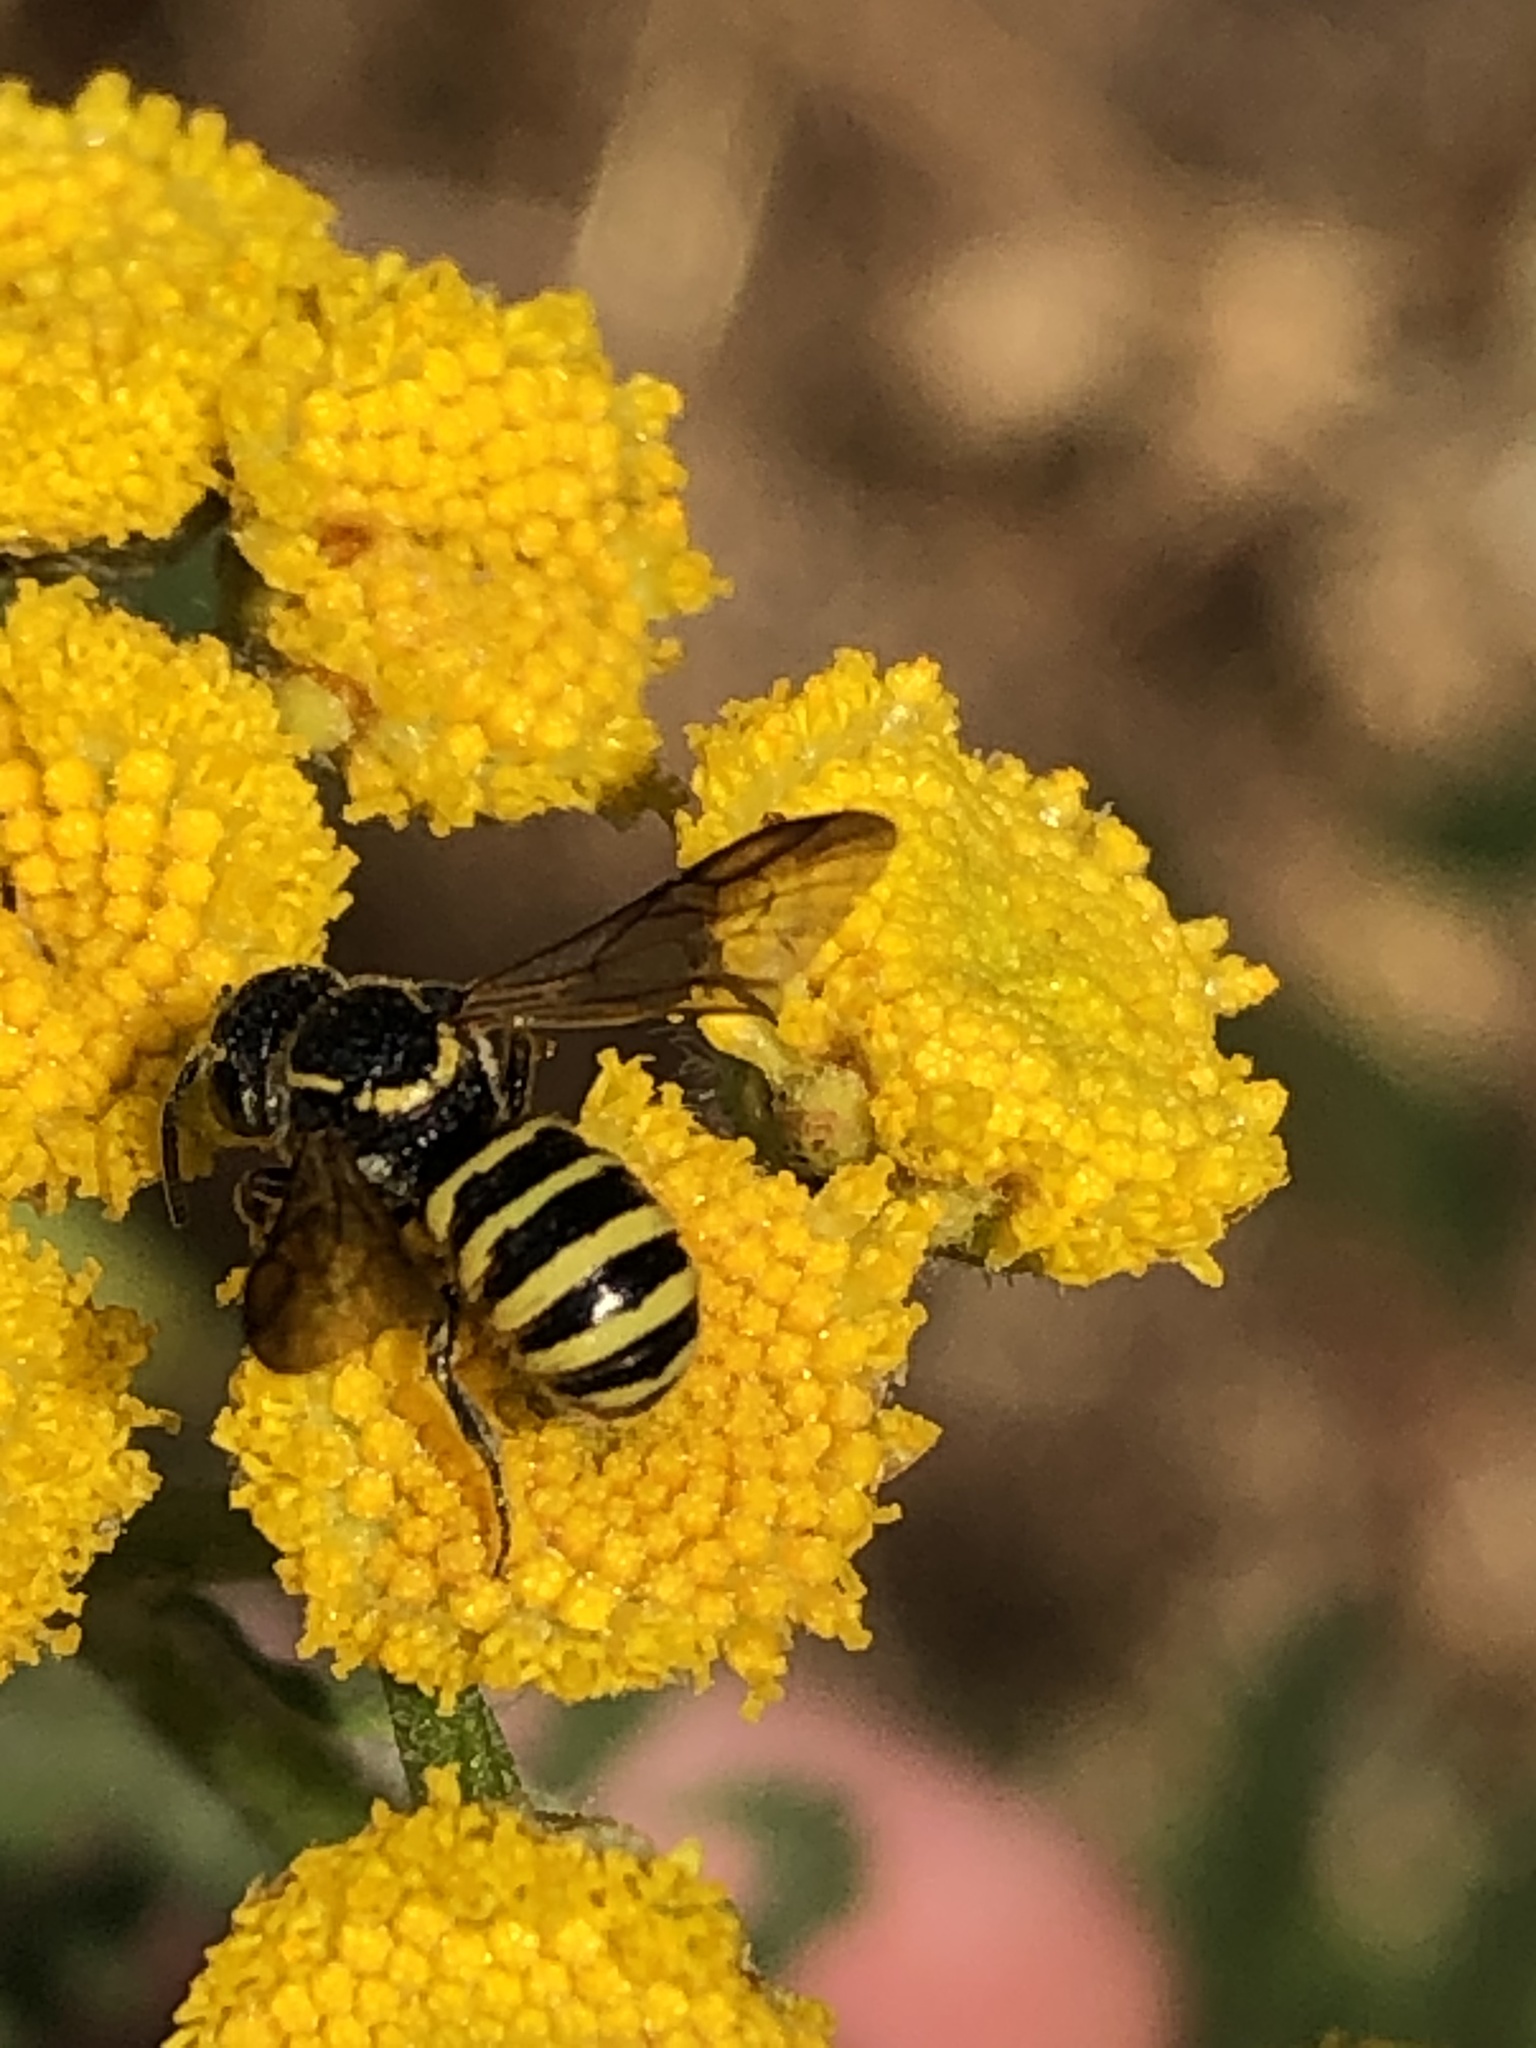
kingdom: Animalia
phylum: Arthropoda
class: Insecta
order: Hymenoptera
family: Megachilidae
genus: Stelis
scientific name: Stelis laticincta
